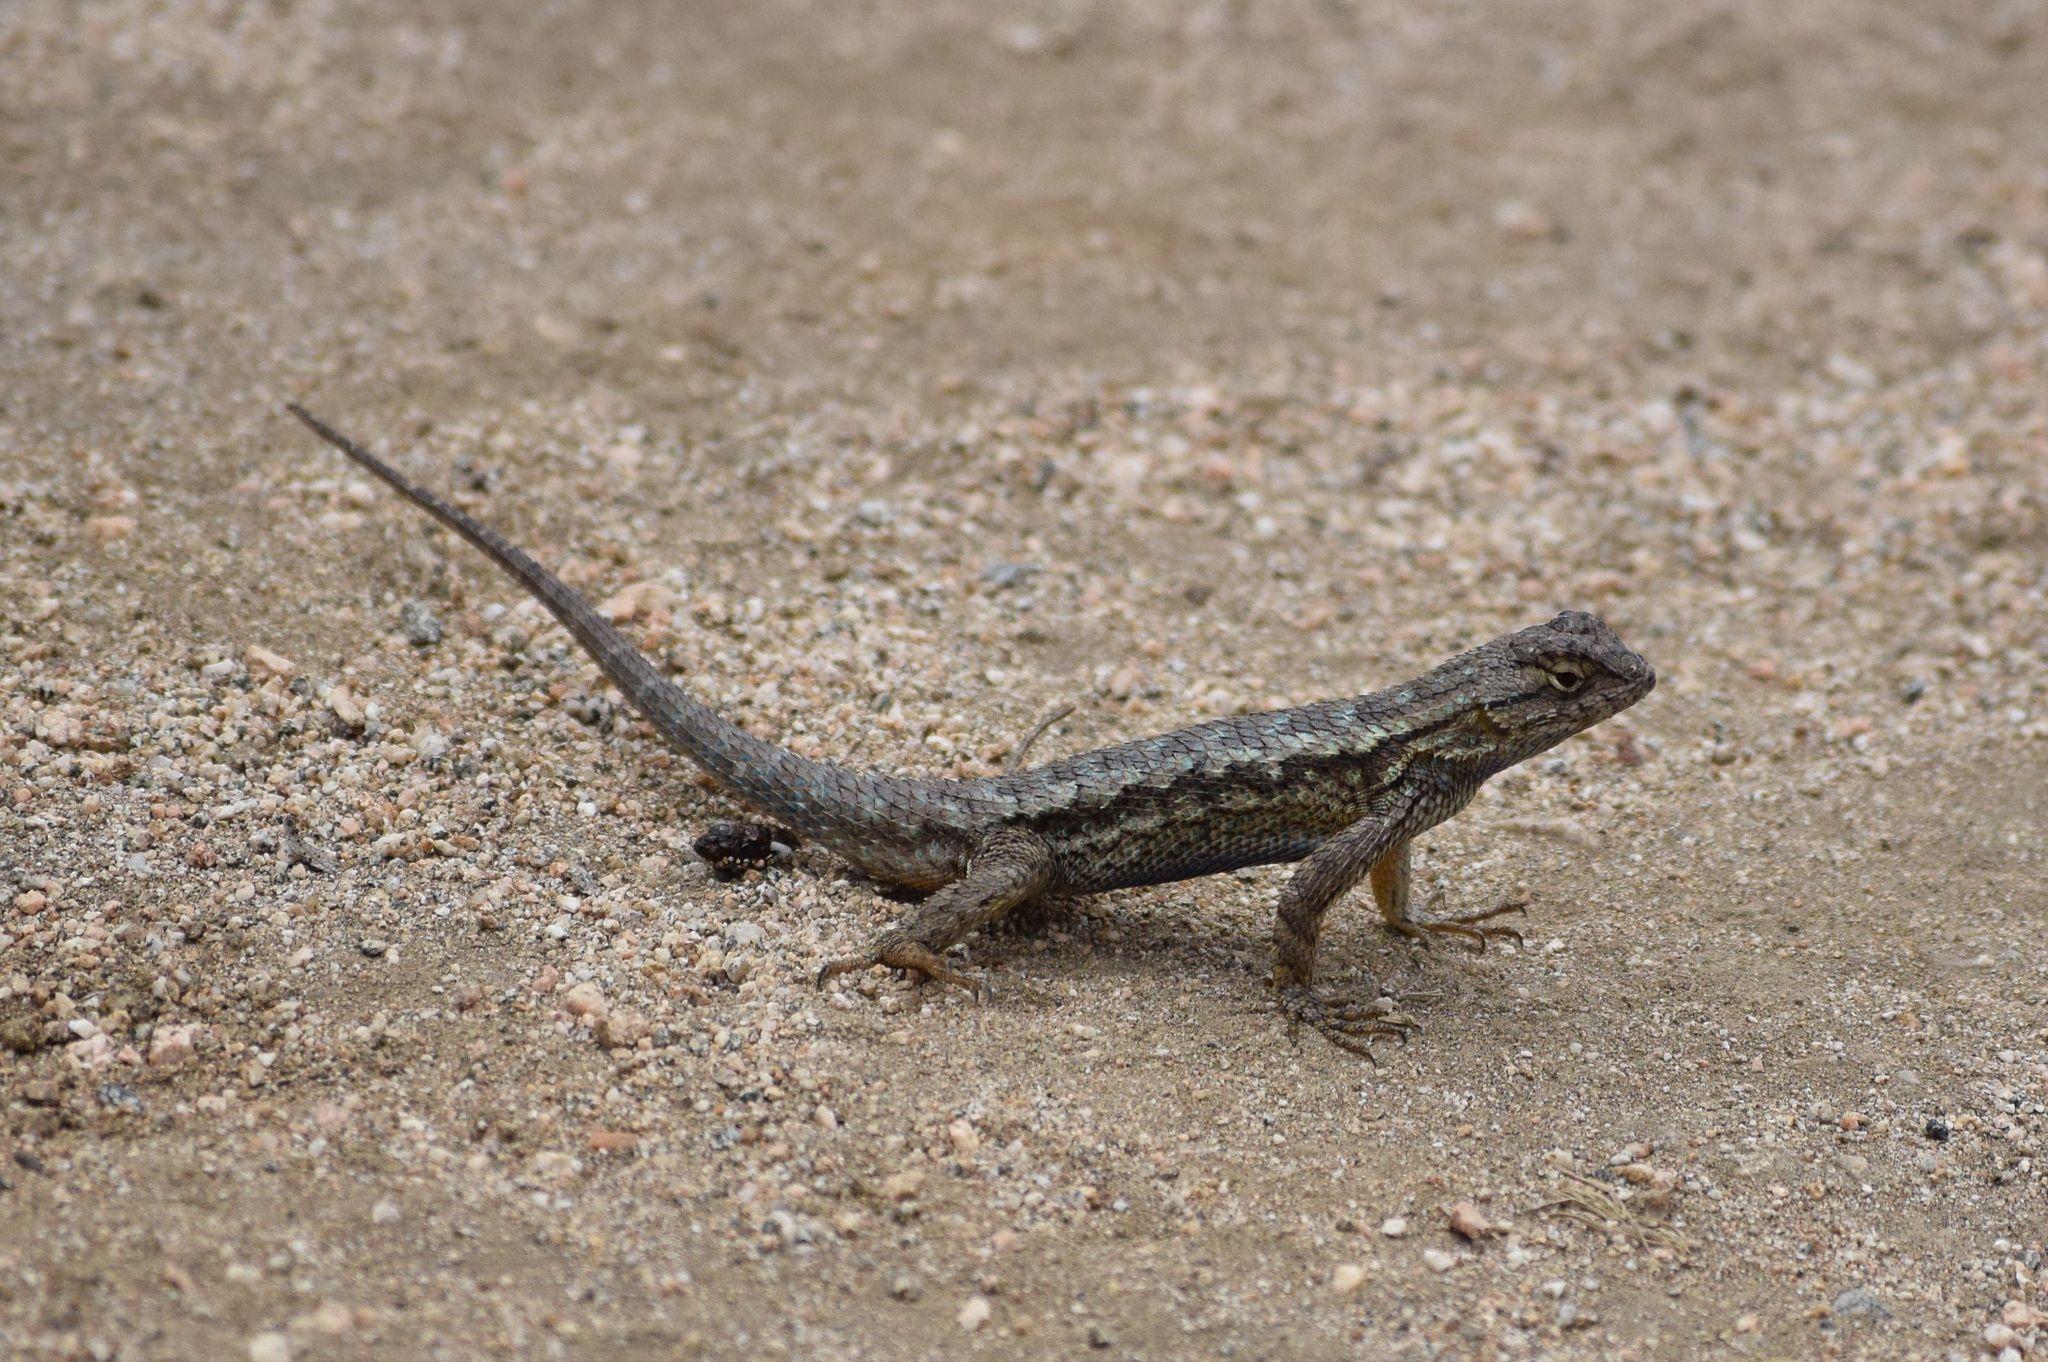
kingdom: Animalia
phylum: Chordata
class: Squamata
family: Phrynosomatidae
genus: Sceloporus
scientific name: Sceloporus occidentalis
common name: Western fence lizard
